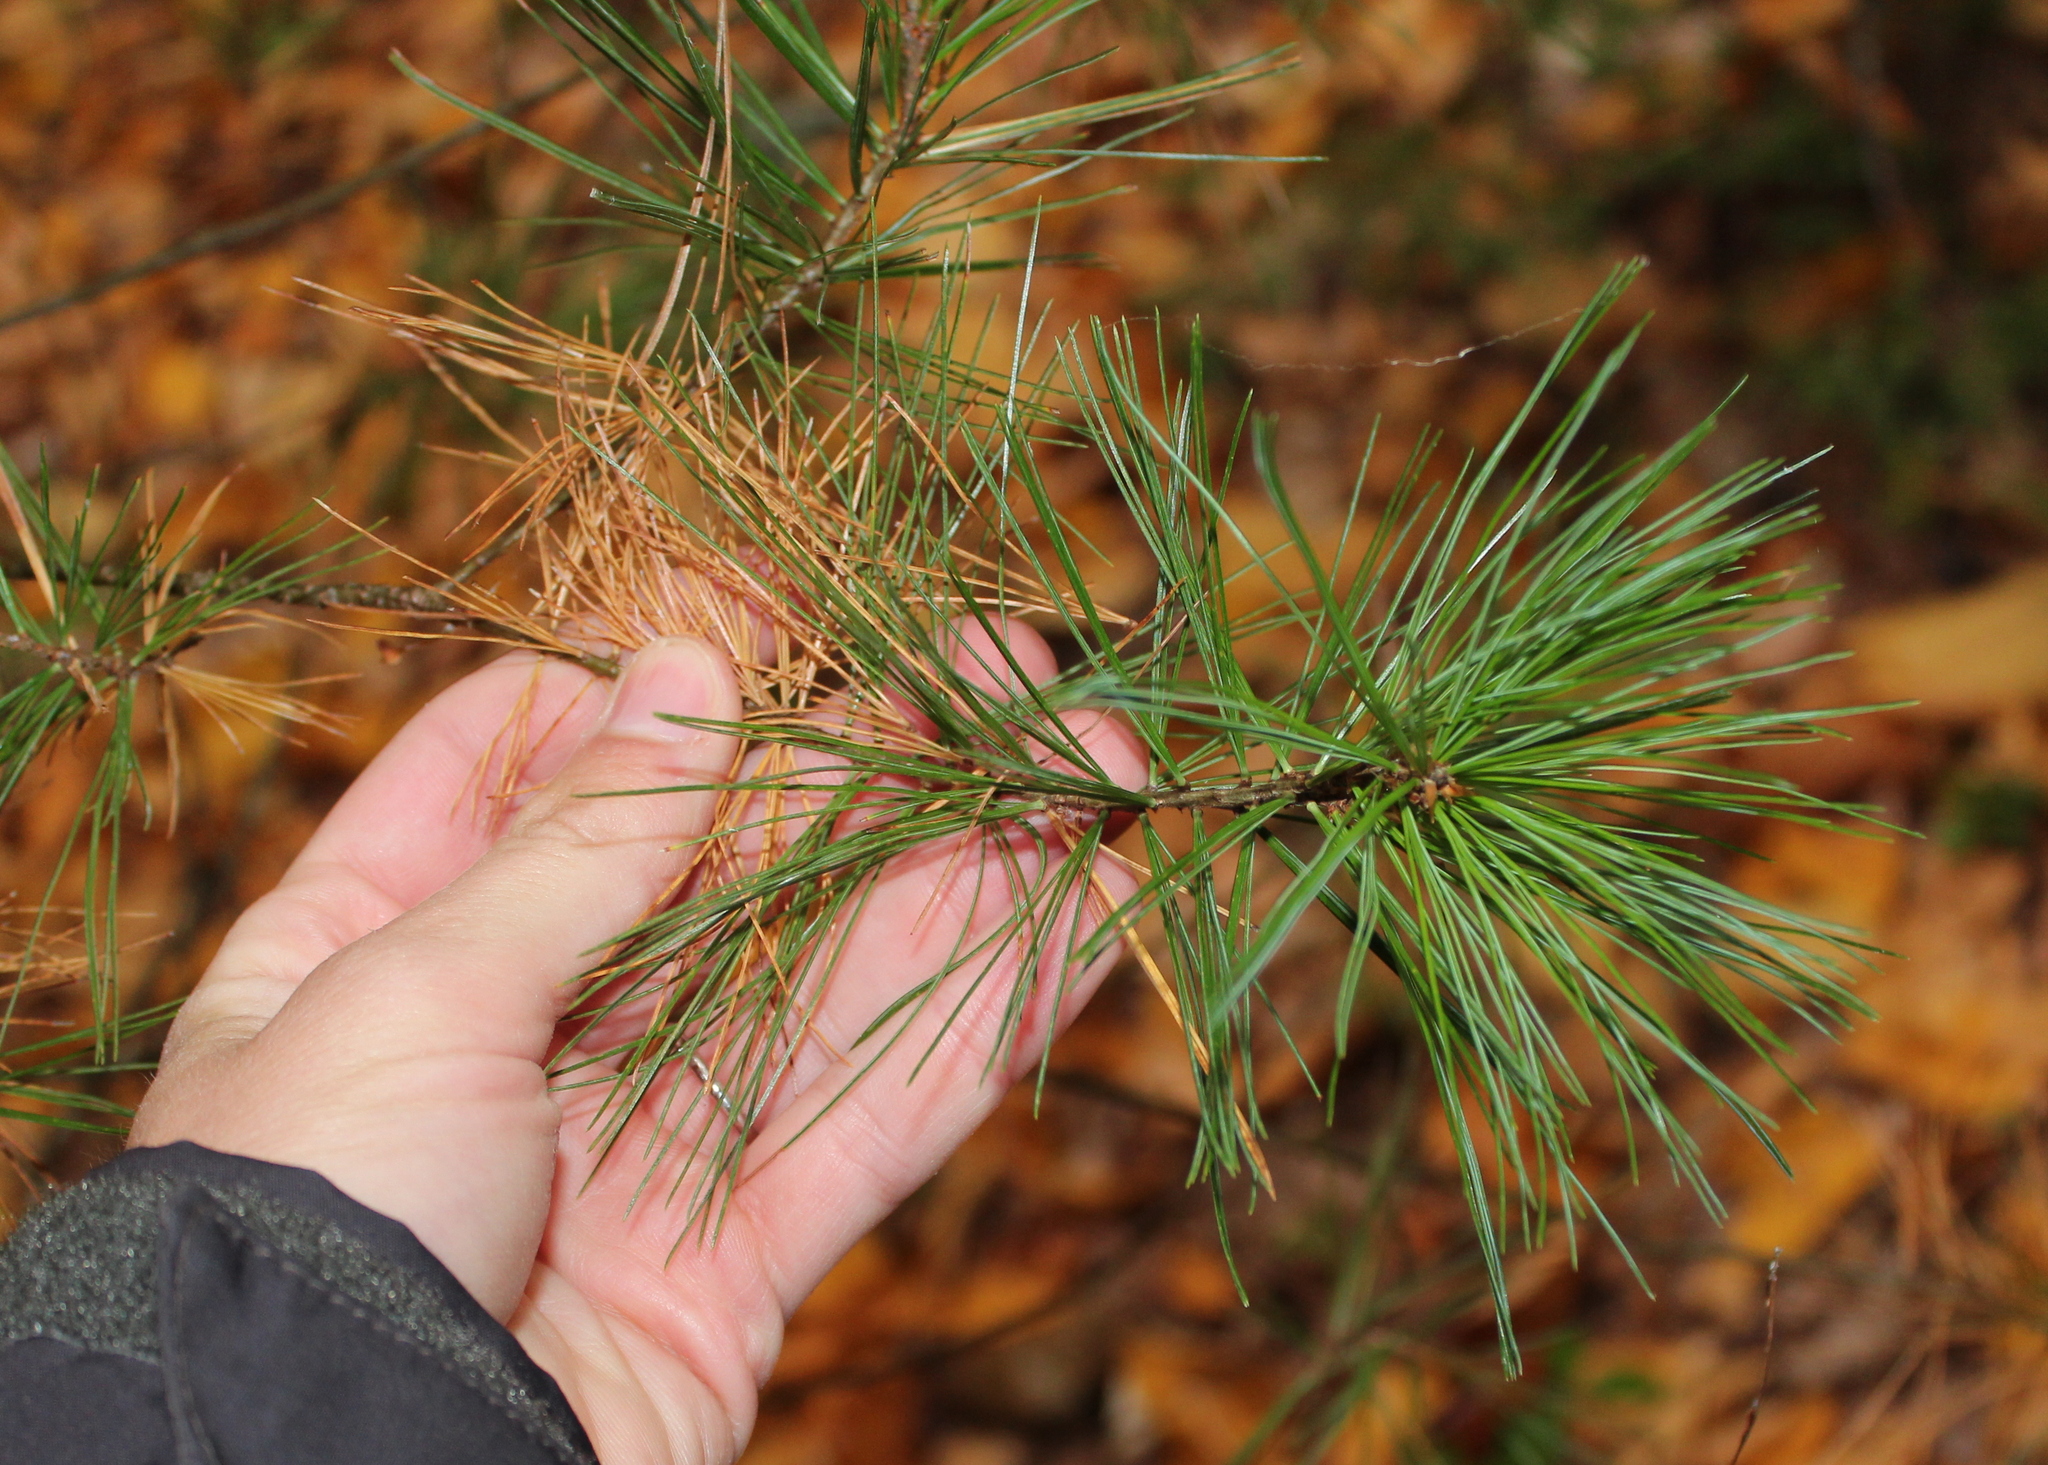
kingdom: Plantae
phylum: Tracheophyta
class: Pinopsida
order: Pinales
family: Pinaceae
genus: Pinus
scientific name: Pinus strobus
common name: Weymouth pine
